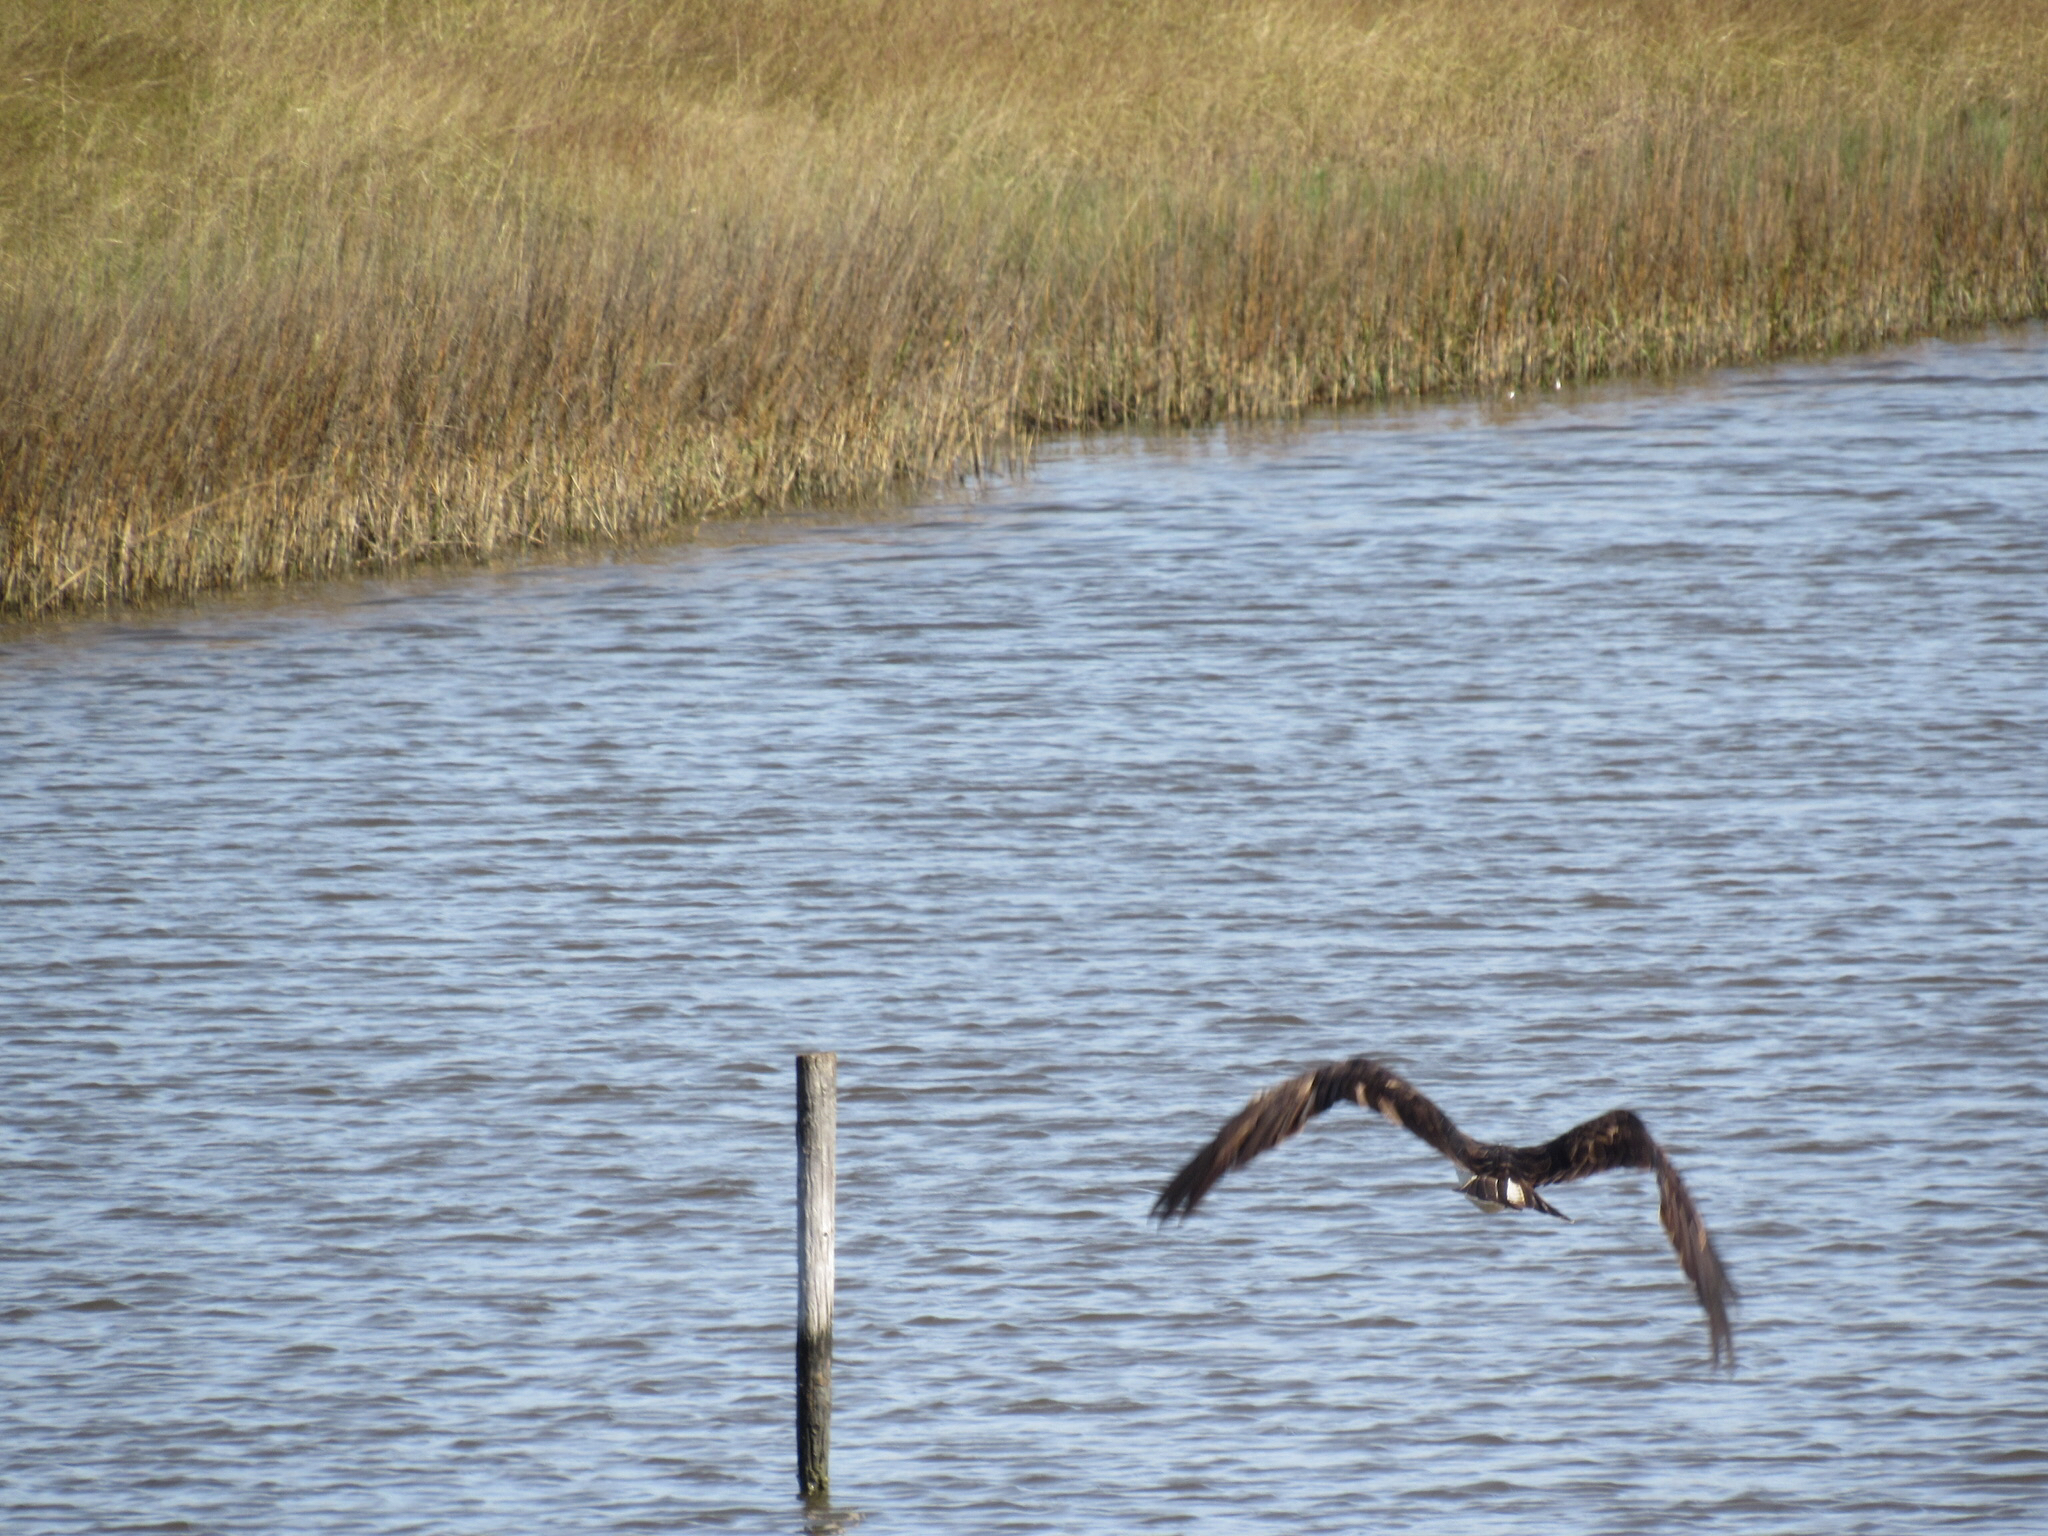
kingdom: Animalia
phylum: Chordata
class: Aves
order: Accipitriformes
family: Pandionidae
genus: Pandion
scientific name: Pandion haliaetus
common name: Osprey
